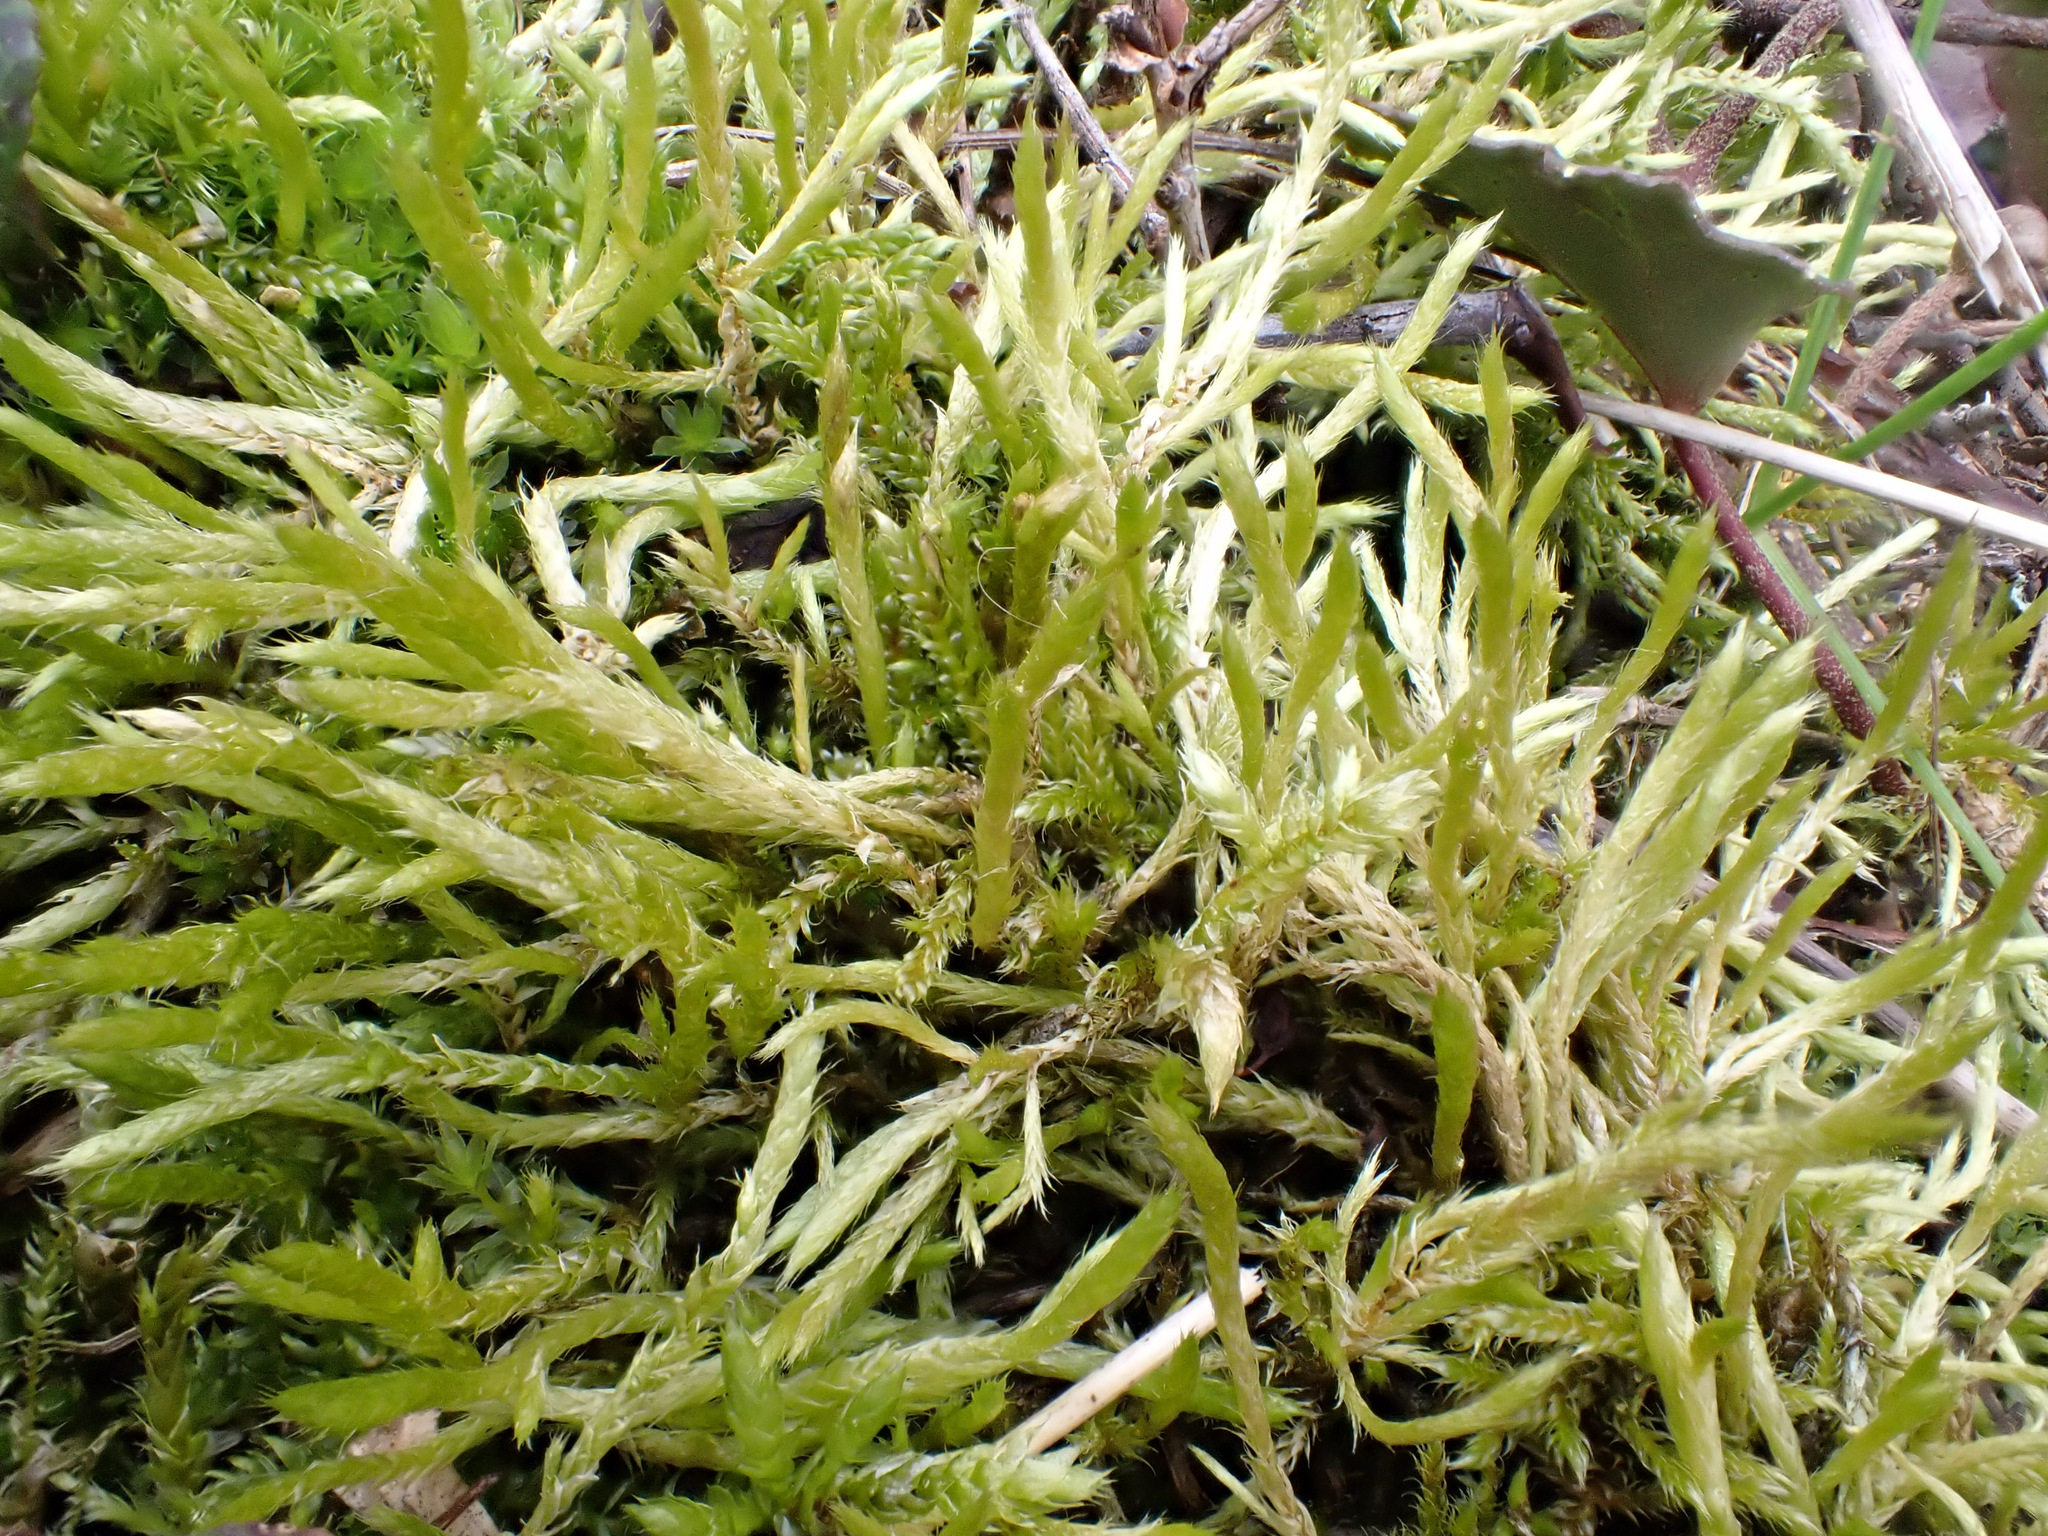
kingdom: Plantae
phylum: Bryophyta
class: Bryopsida
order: Hypnales
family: Brachytheciaceae
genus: Brachythecium
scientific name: Brachythecium albicans
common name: Whitish ragged moss
